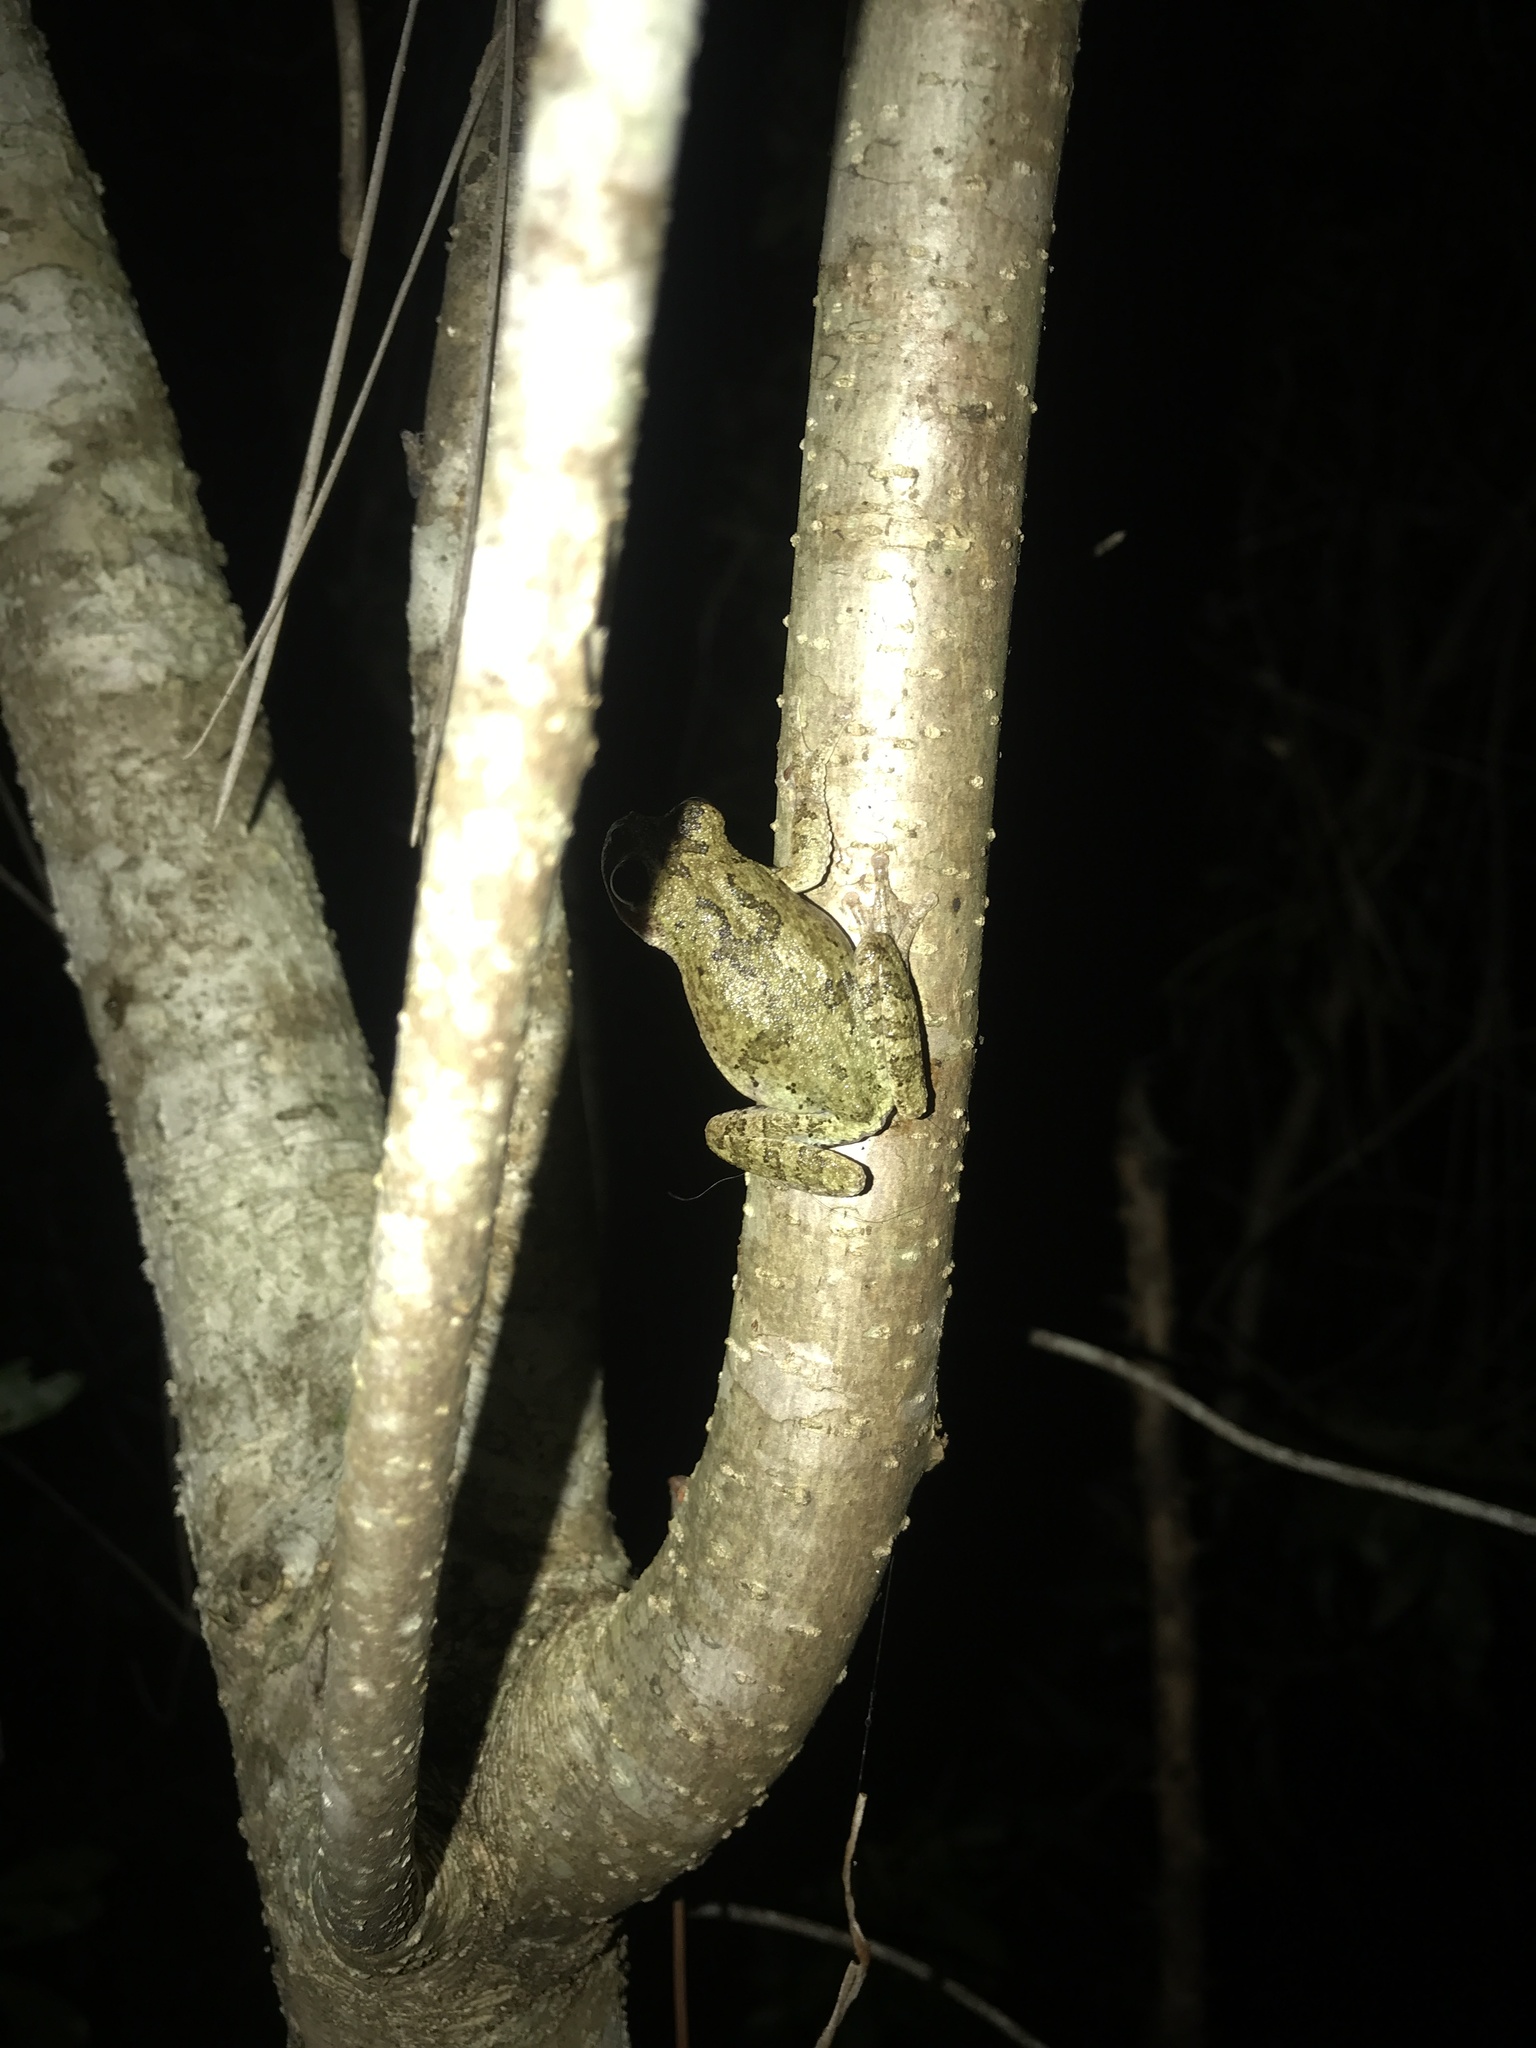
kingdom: Animalia
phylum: Chordata
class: Amphibia
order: Anura
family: Hylidae
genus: Dryophytes
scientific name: Dryophytes avivoca
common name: Bird-voiced treefrog
